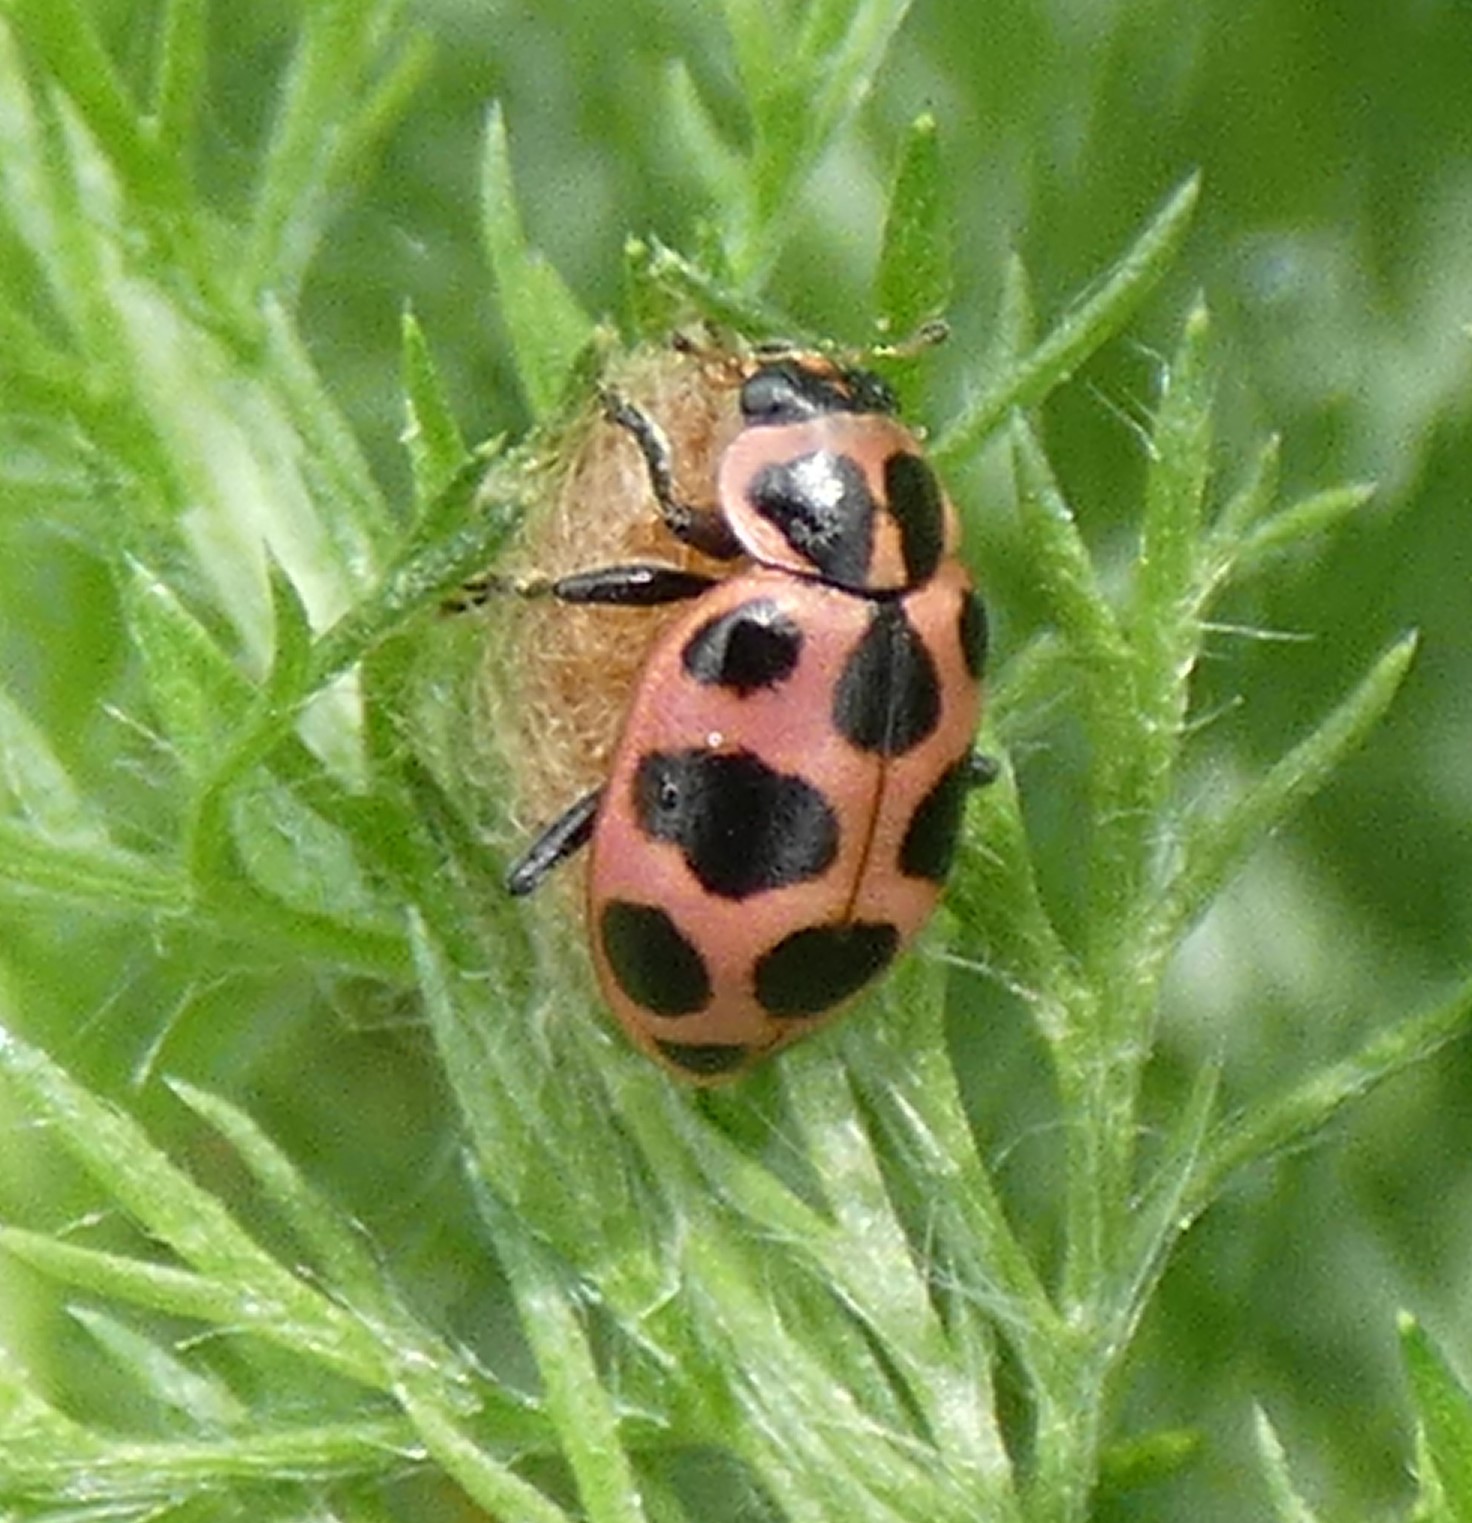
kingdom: Animalia
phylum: Arthropoda
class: Insecta
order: Coleoptera
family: Coccinellidae
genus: Coleomegilla
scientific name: Coleomegilla maculata
